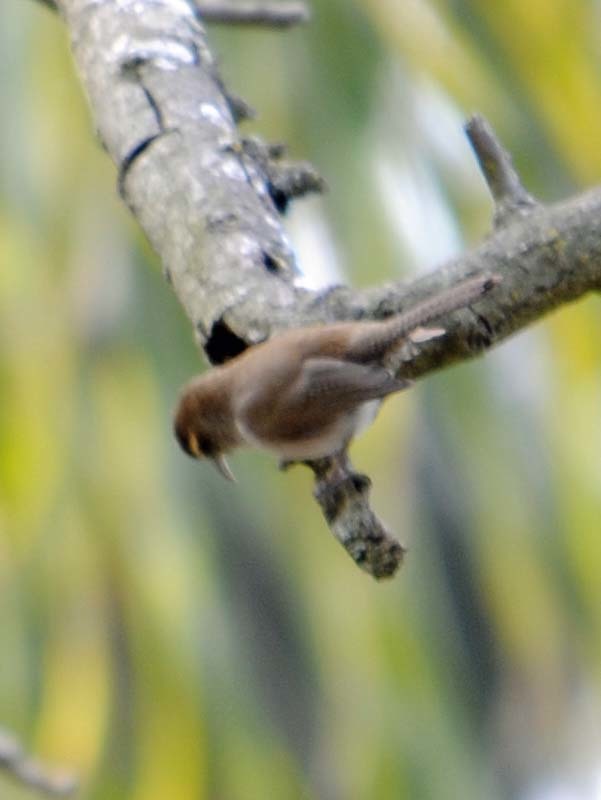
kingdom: Animalia
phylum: Chordata
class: Aves
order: Passeriformes
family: Troglodytidae
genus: Thryomanes
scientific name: Thryomanes bewickii
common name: Bewick's wren
